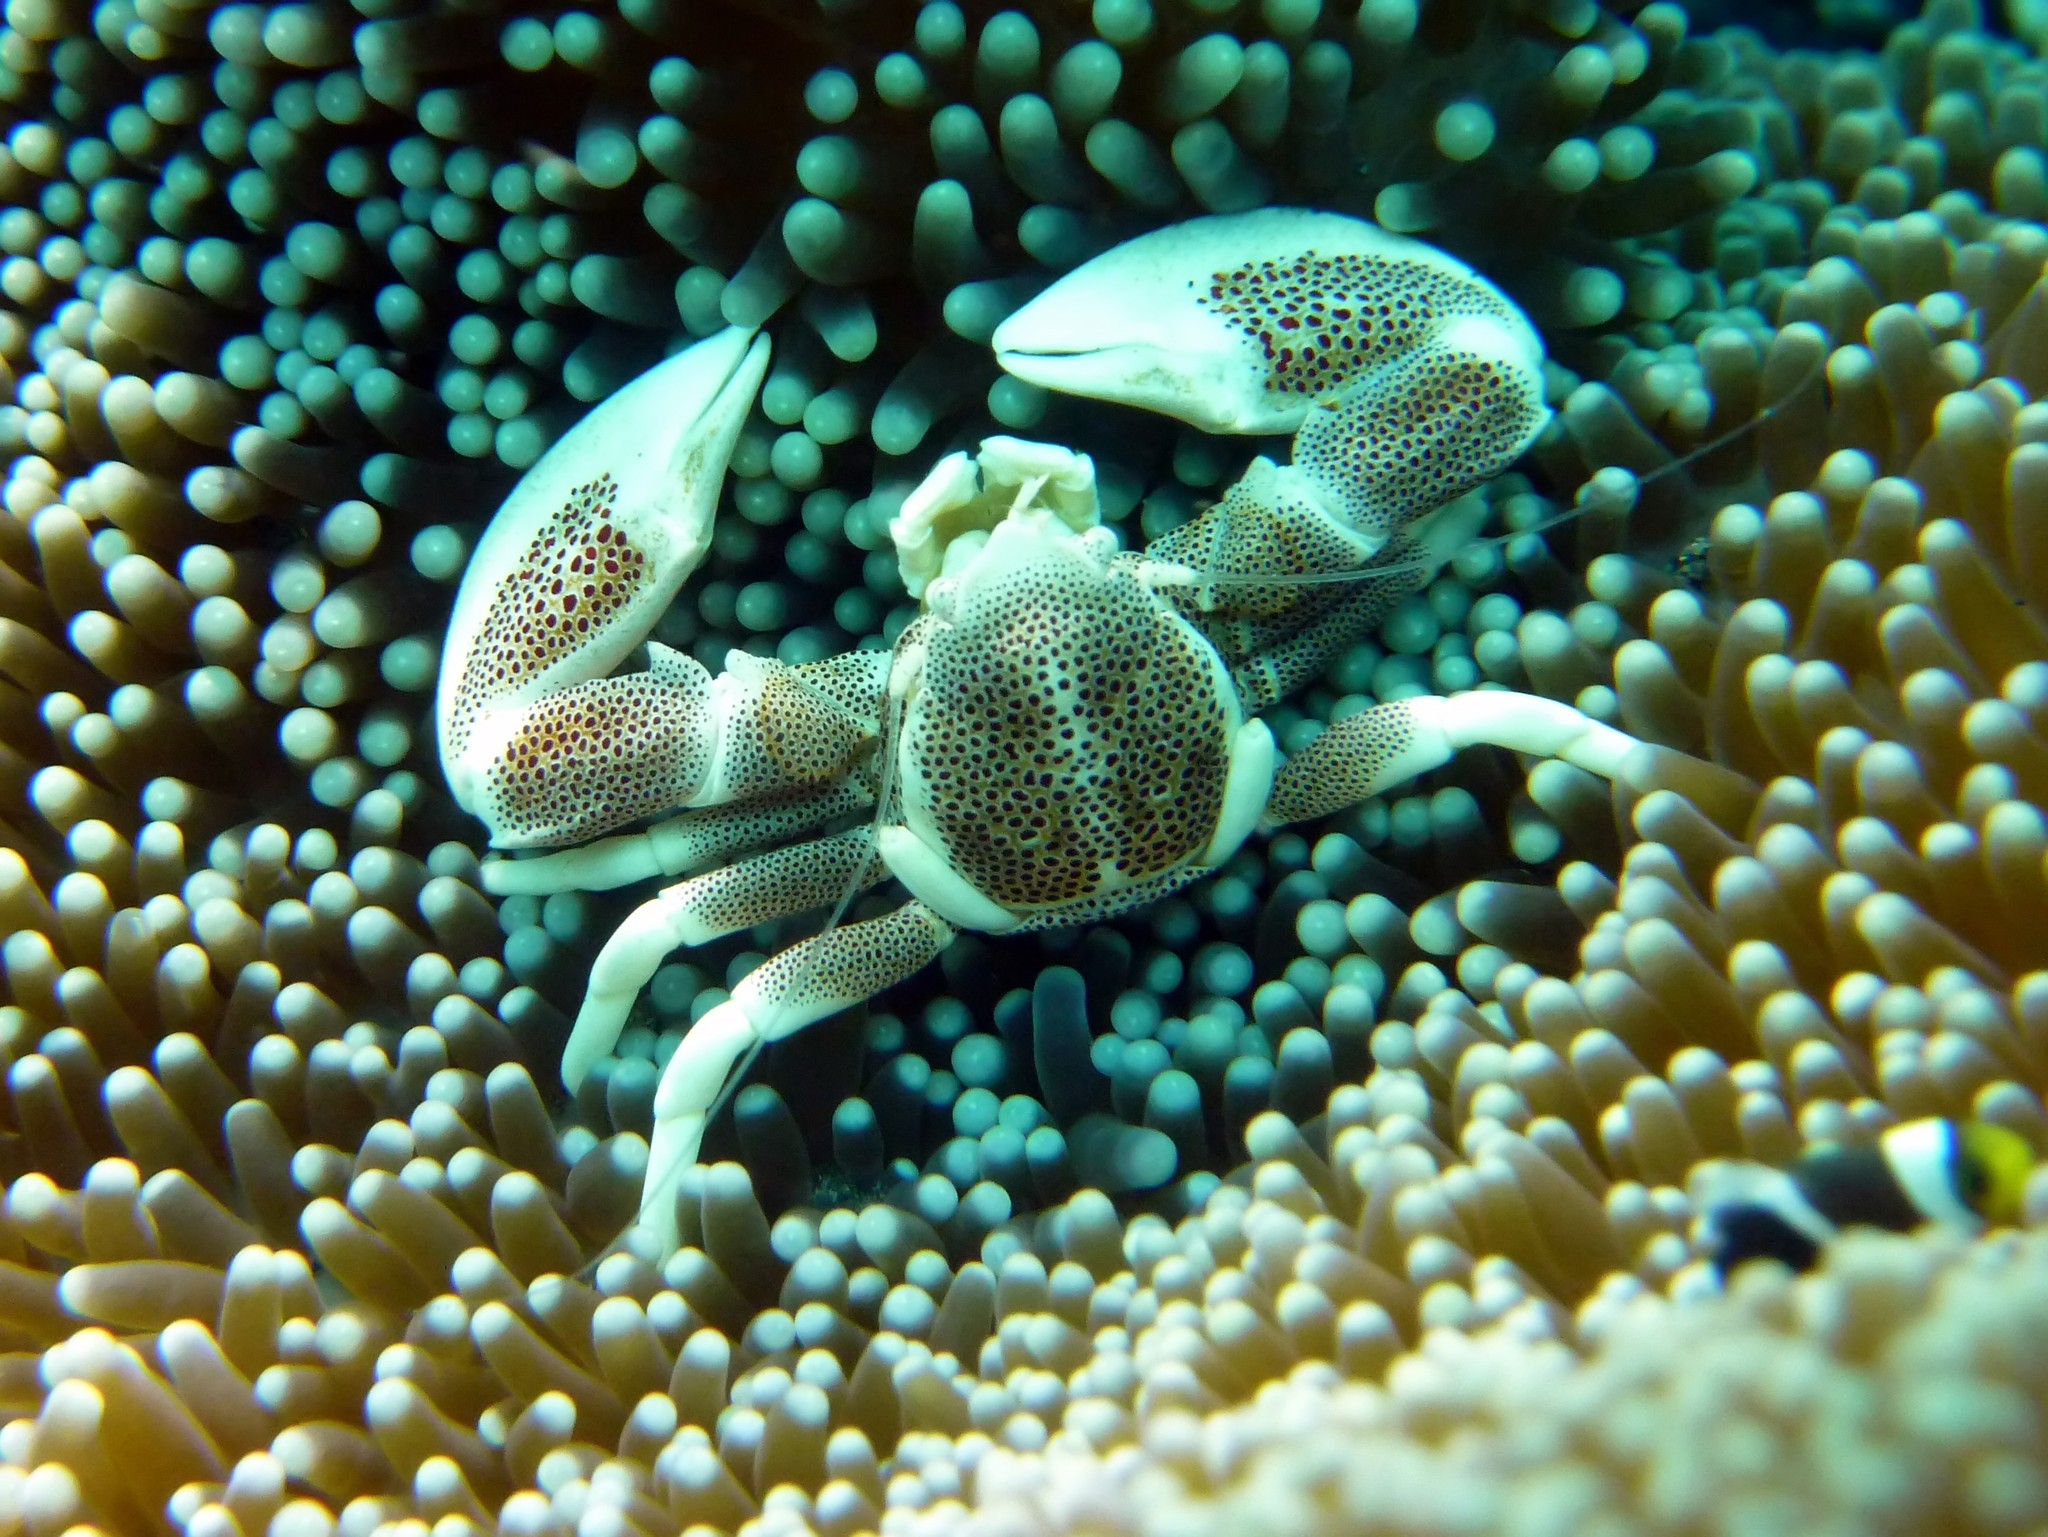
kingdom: Animalia
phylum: Arthropoda
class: Malacostraca
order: Decapoda
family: Porcellanidae
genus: Neopetrolisthes
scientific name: Neopetrolisthes maculatus
